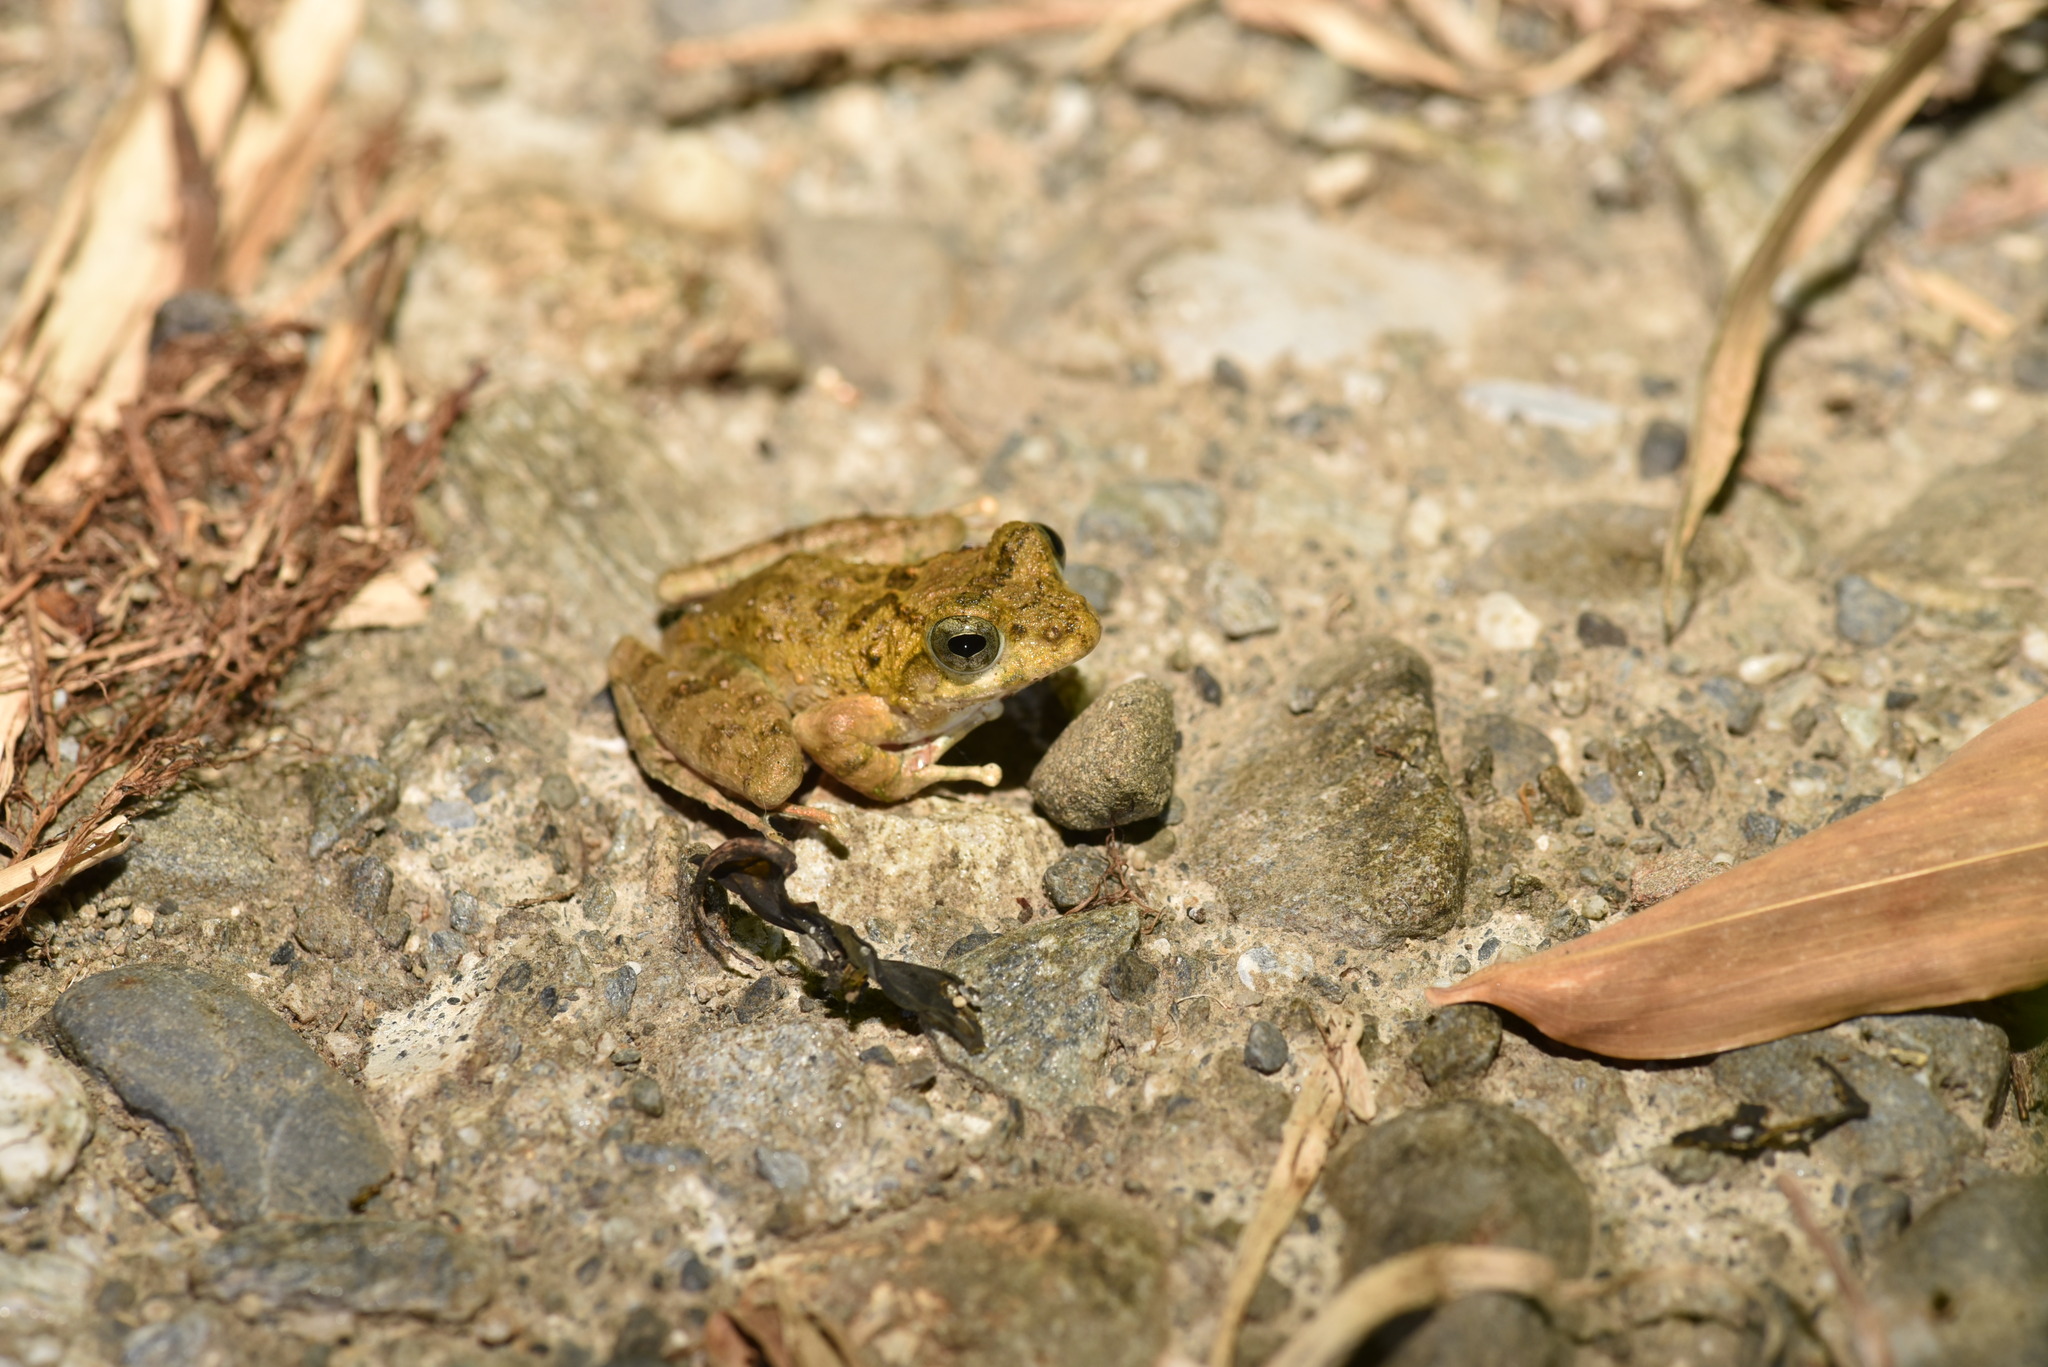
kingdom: Animalia
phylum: Chordata
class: Amphibia
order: Anura
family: Rhacophoridae
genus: Buergeria
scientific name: Buergeria otai
